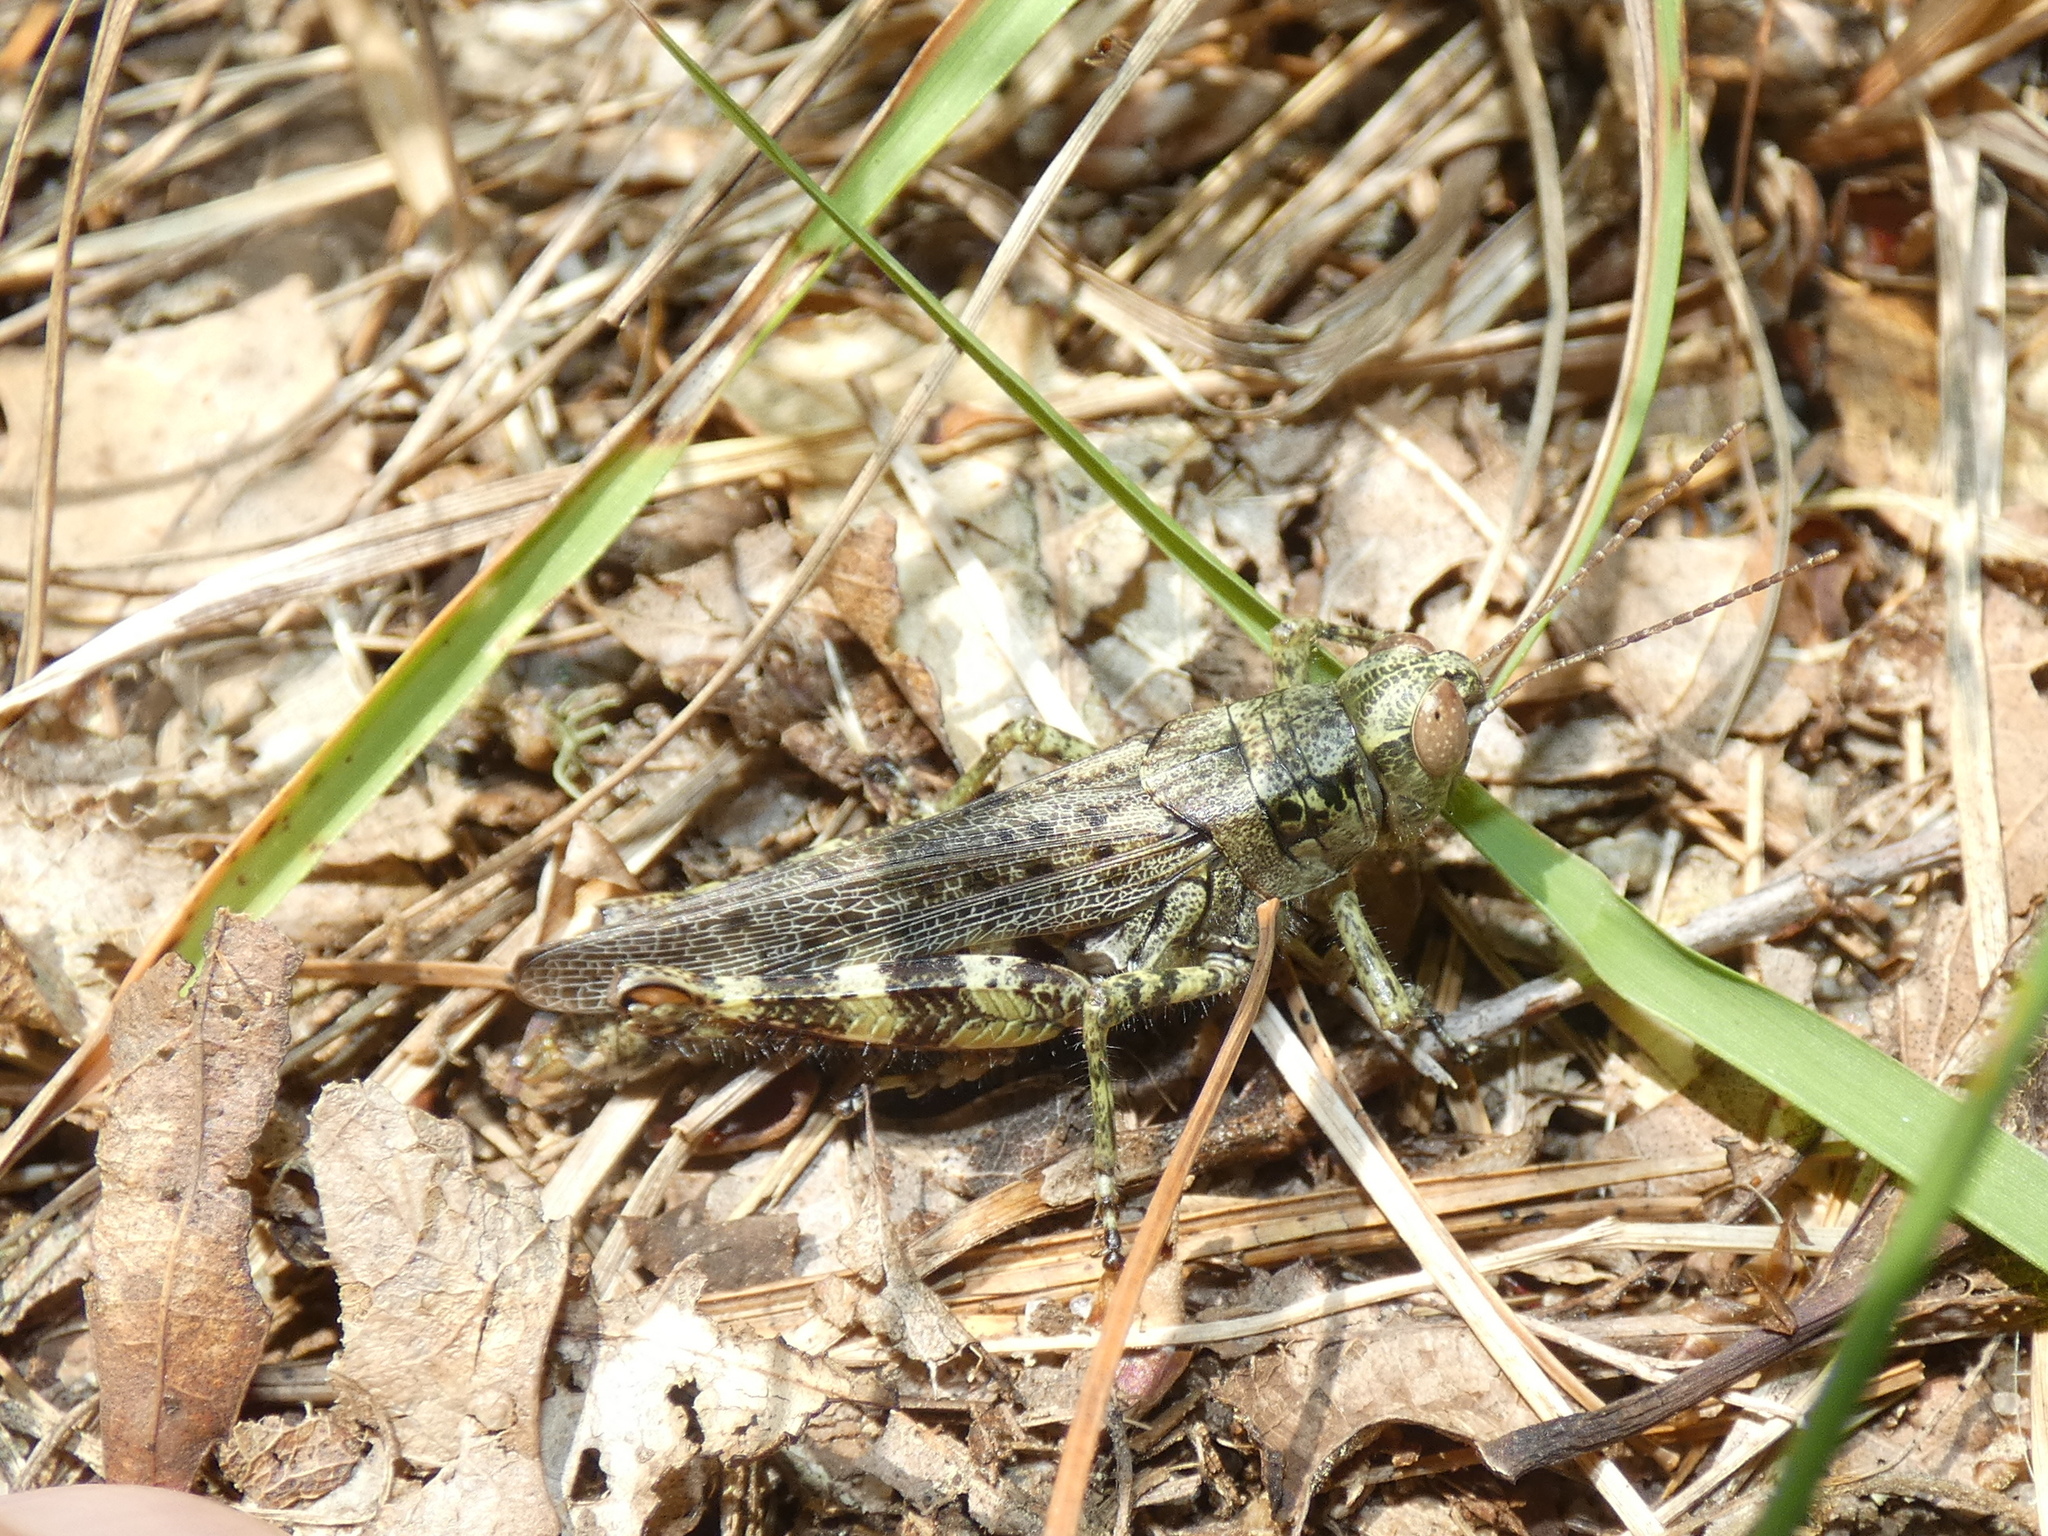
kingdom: Animalia
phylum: Arthropoda
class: Insecta
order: Orthoptera
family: Acrididae
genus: Melanoplus
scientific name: Melanoplus punctulatus
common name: Pine-tree spur-throat grasshopper
